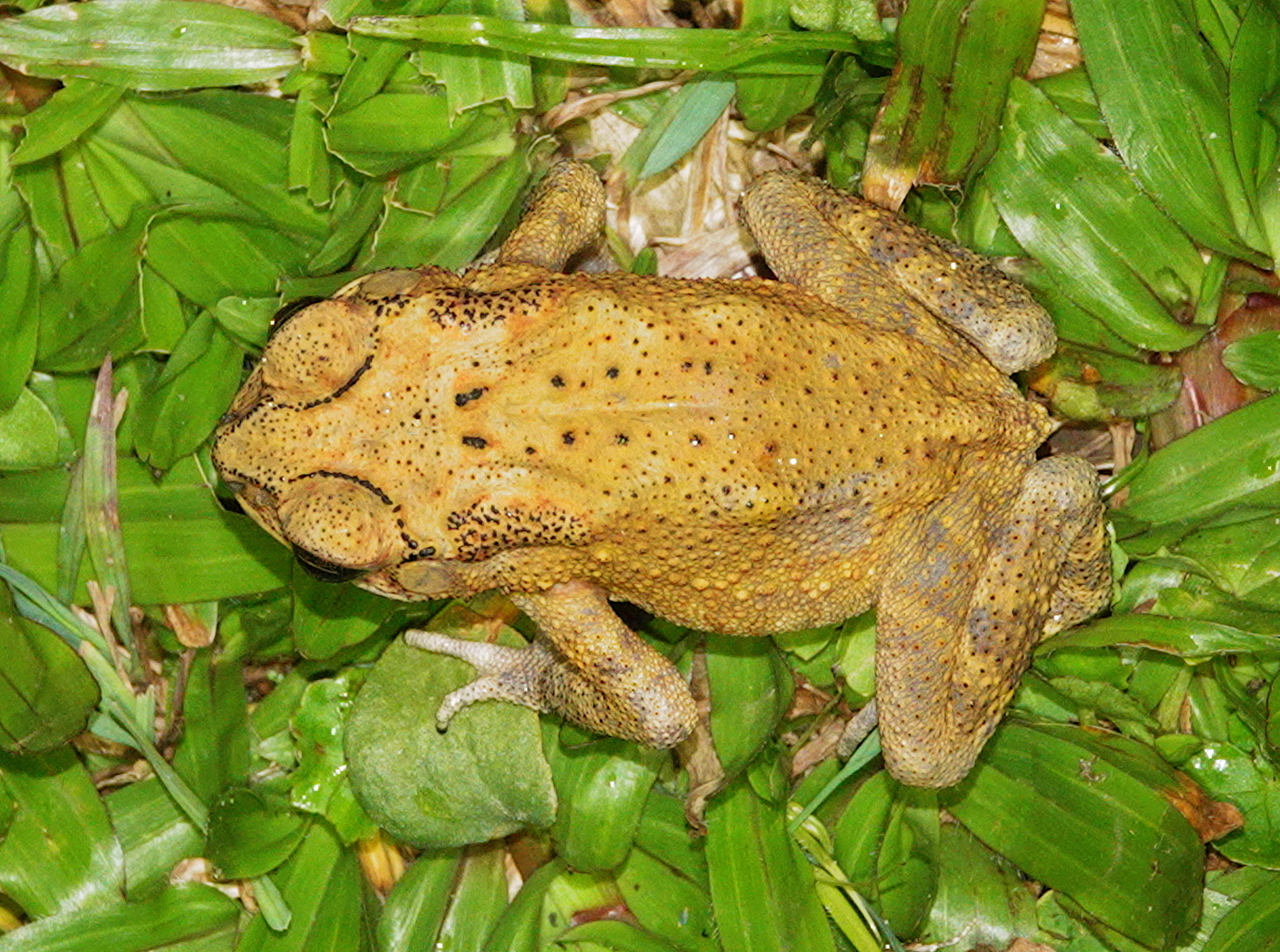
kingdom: Animalia
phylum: Chordata
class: Amphibia
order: Anura
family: Bufonidae
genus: Duttaphrynus
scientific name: Duttaphrynus melanostictus
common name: Common sunda toad
